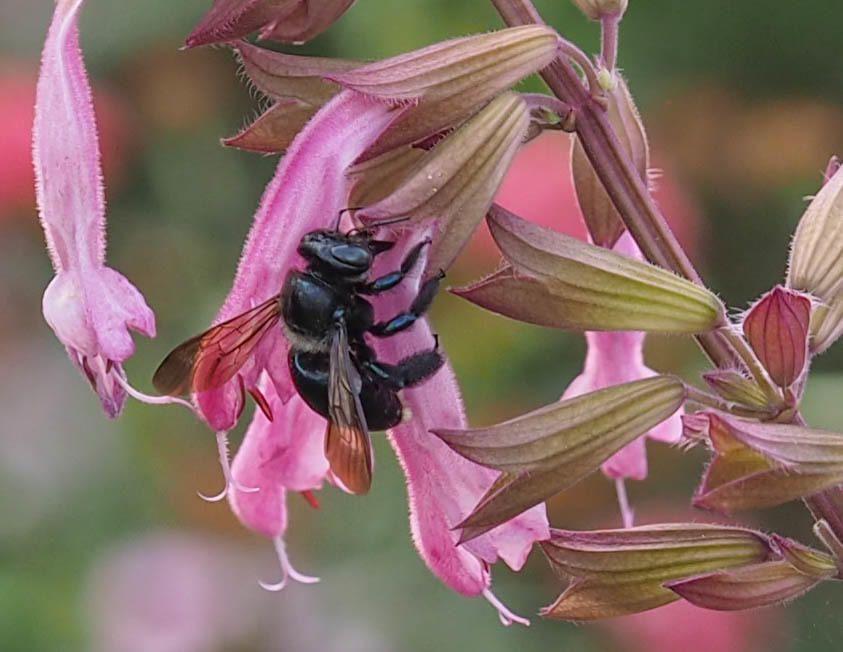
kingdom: Animalia
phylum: Arthropoda
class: Insecta
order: Hymenoptera
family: Apidae
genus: Xylocopa
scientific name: Xylocopa micans
